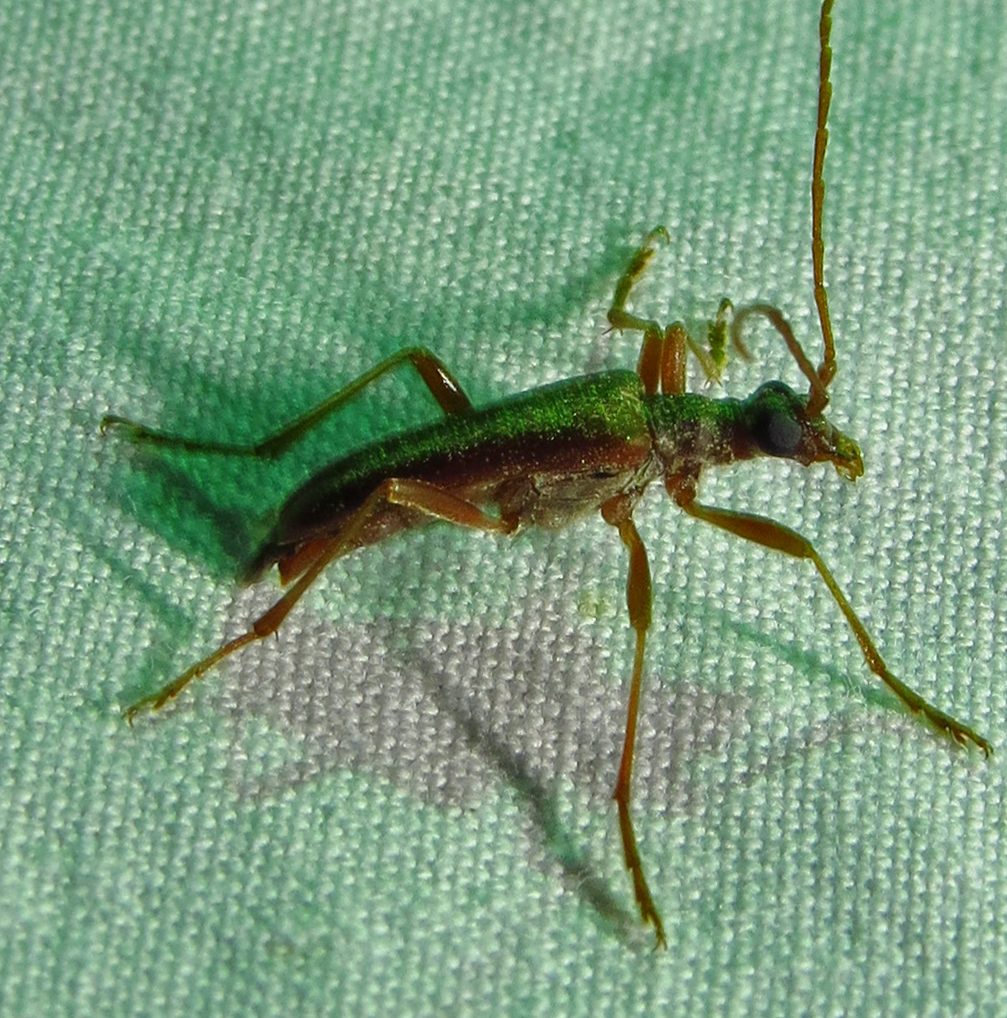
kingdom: Animalia
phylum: Arthropoda
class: Insecta
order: Coleoptera
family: Cerambycidae
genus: Stenocorus
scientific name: Stenocorus cinnamopterus
